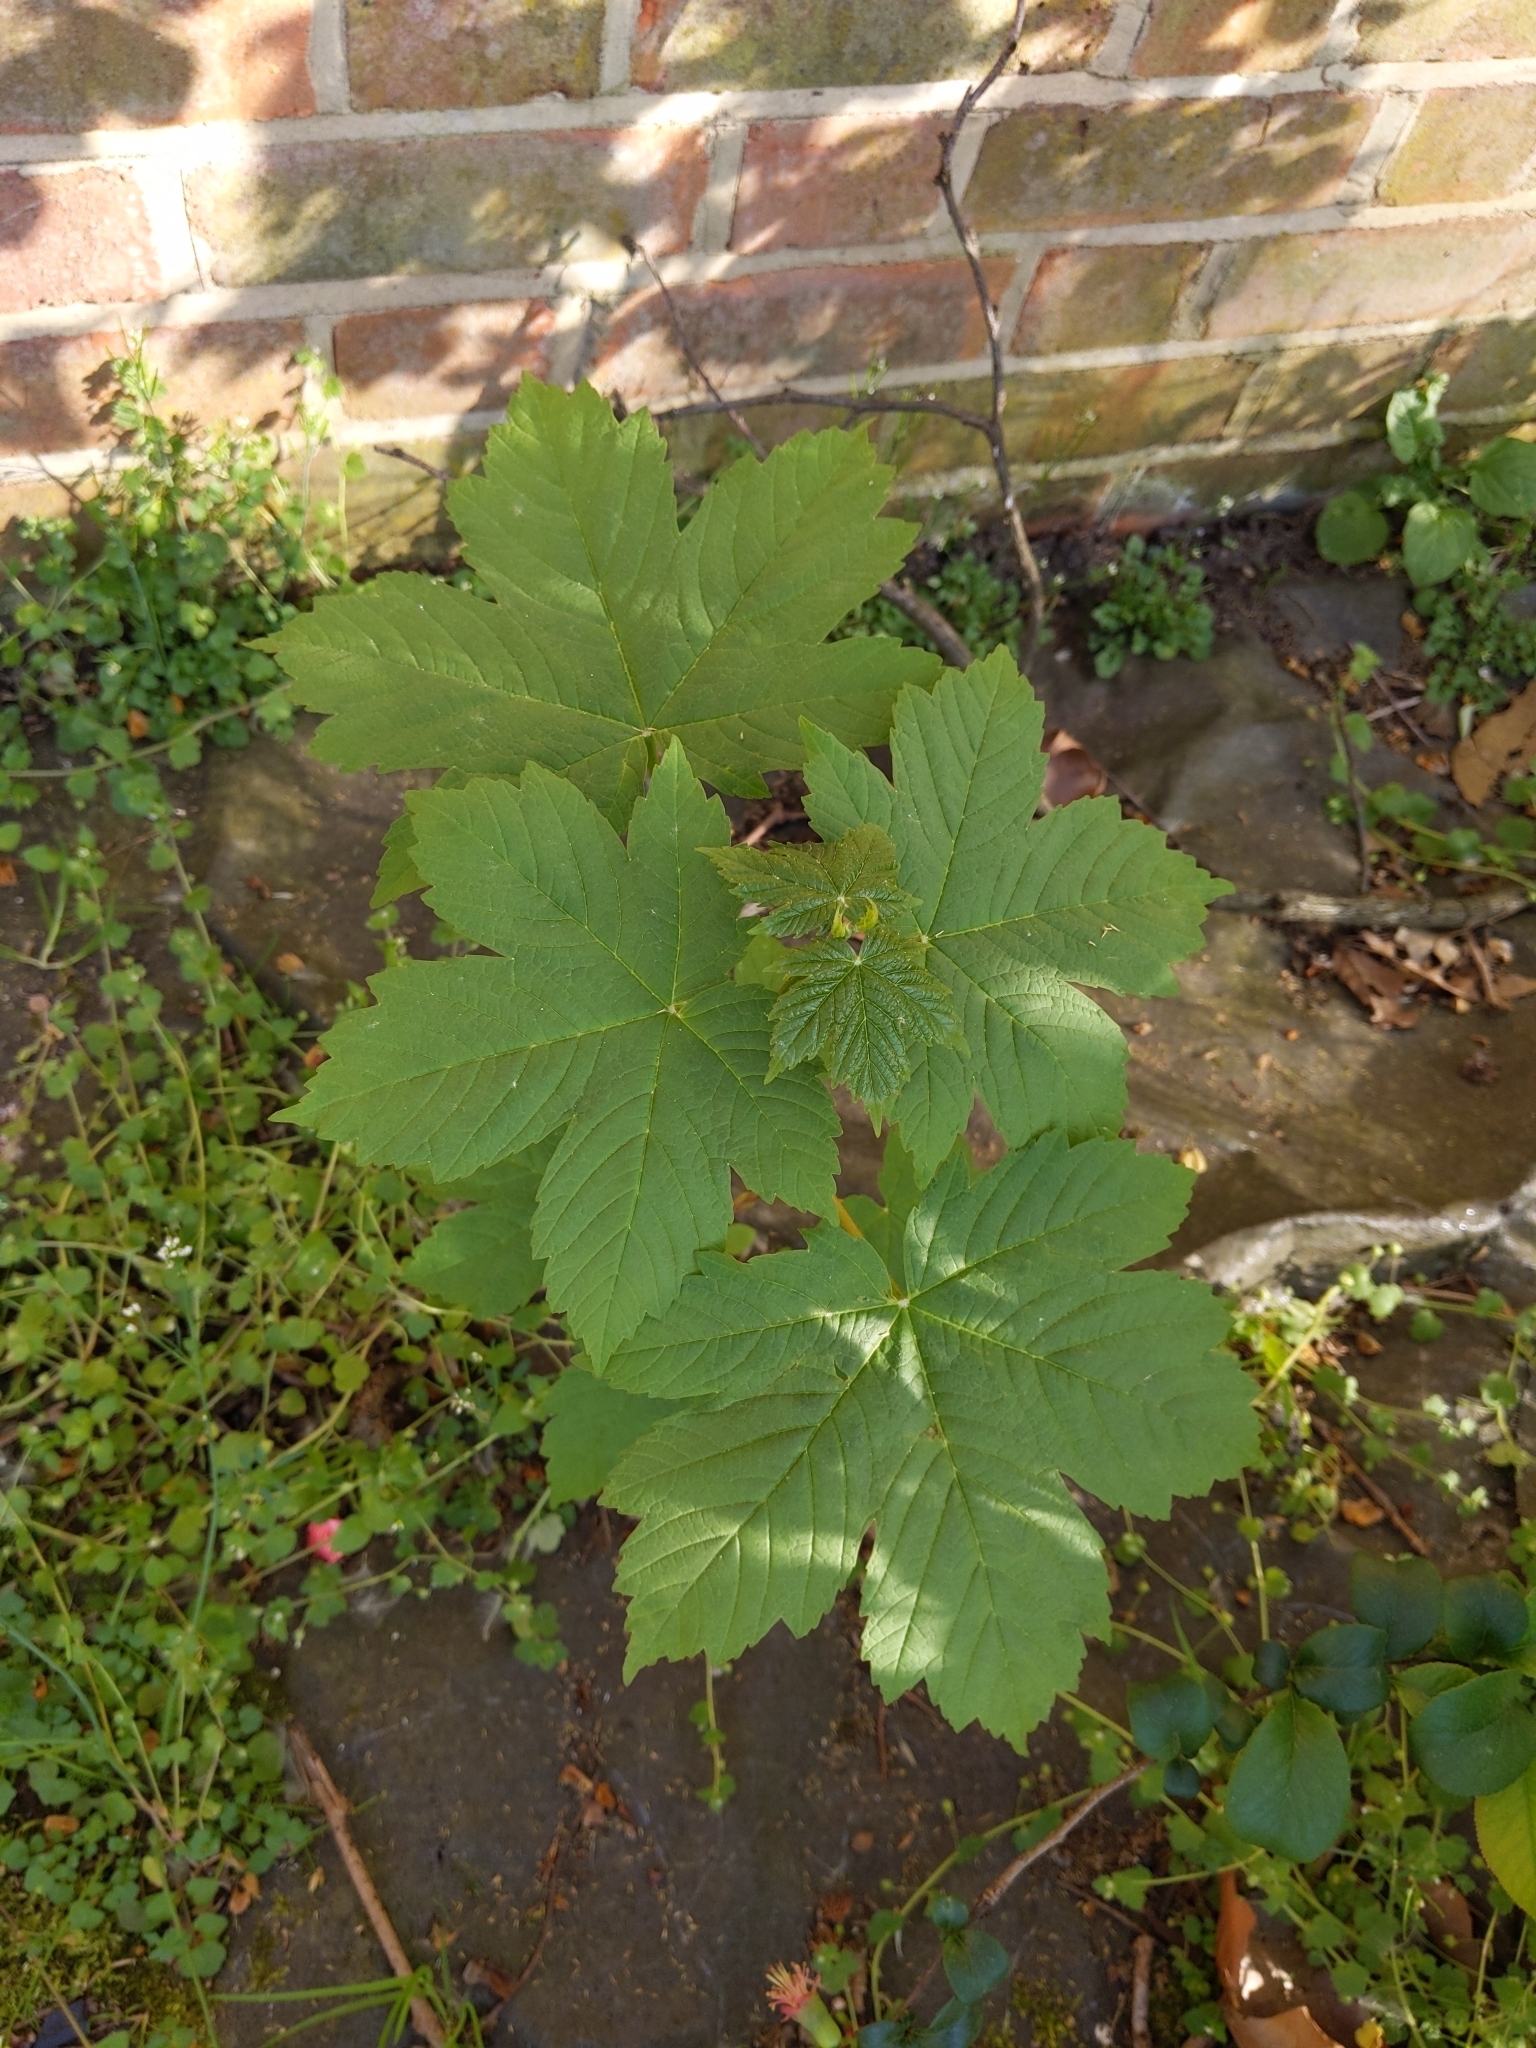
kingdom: Plantae
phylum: Tracheophyta
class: Magnoliopsida
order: Sapindales
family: Sapindaceae
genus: Acer
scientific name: Acer pseudoplatanus
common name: Sycamore
